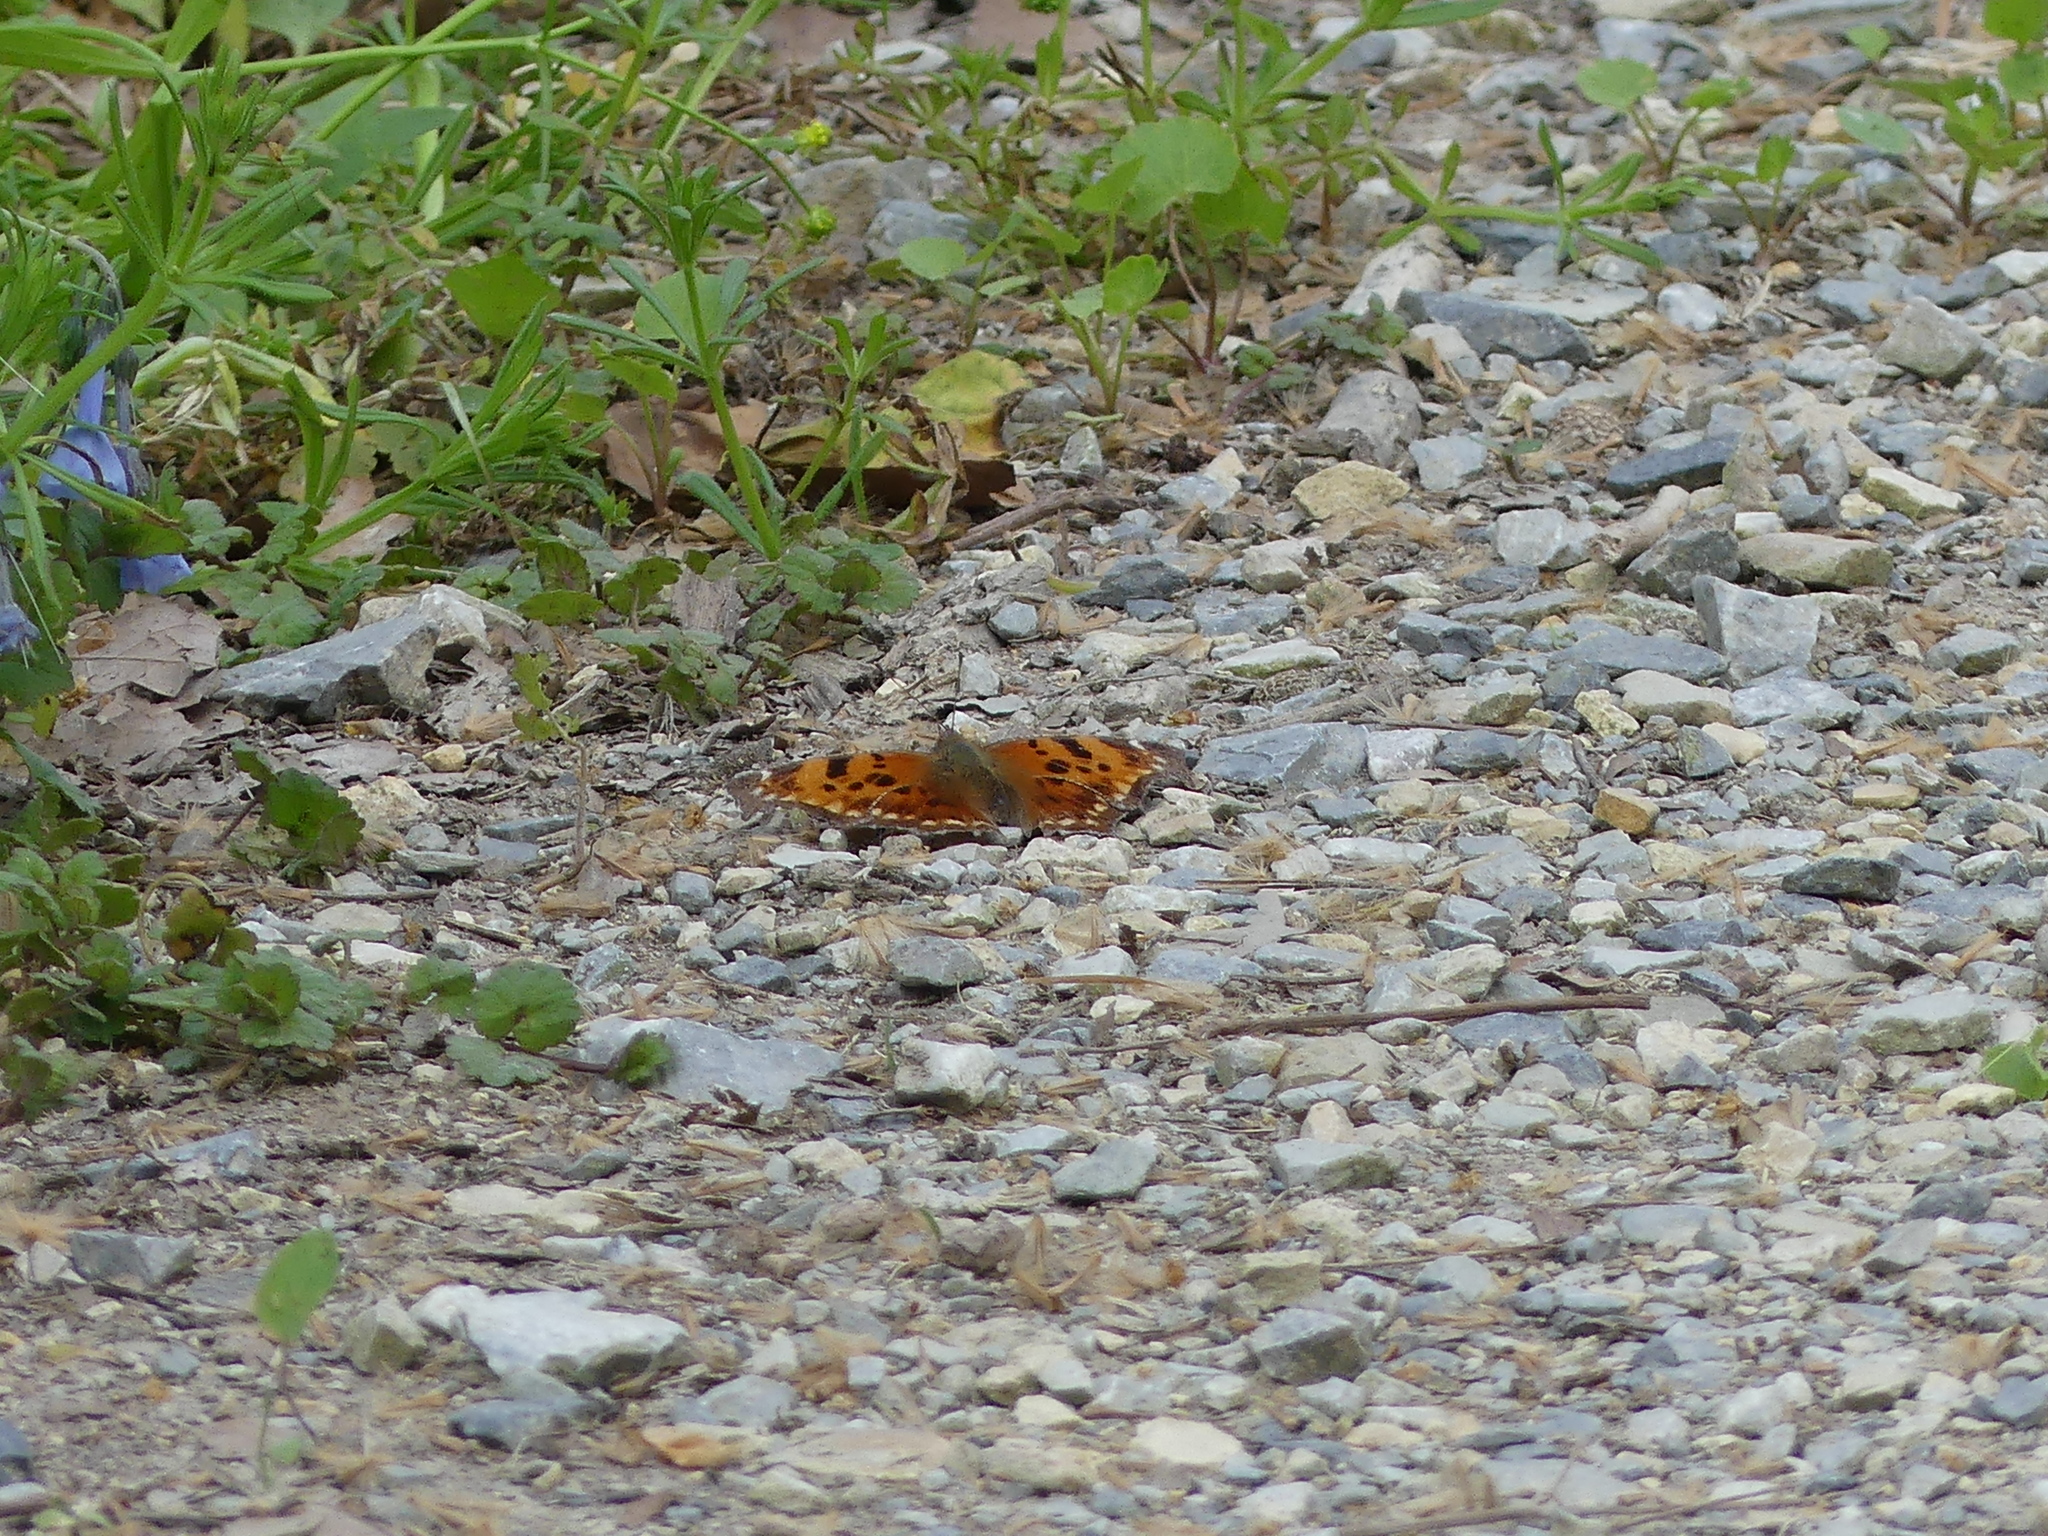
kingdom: Animalia
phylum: Arthropoda
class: Insecta
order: Lepidoptera
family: Nymphalidae
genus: Polygonia
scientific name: Polygonia comma
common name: Eastern comma
